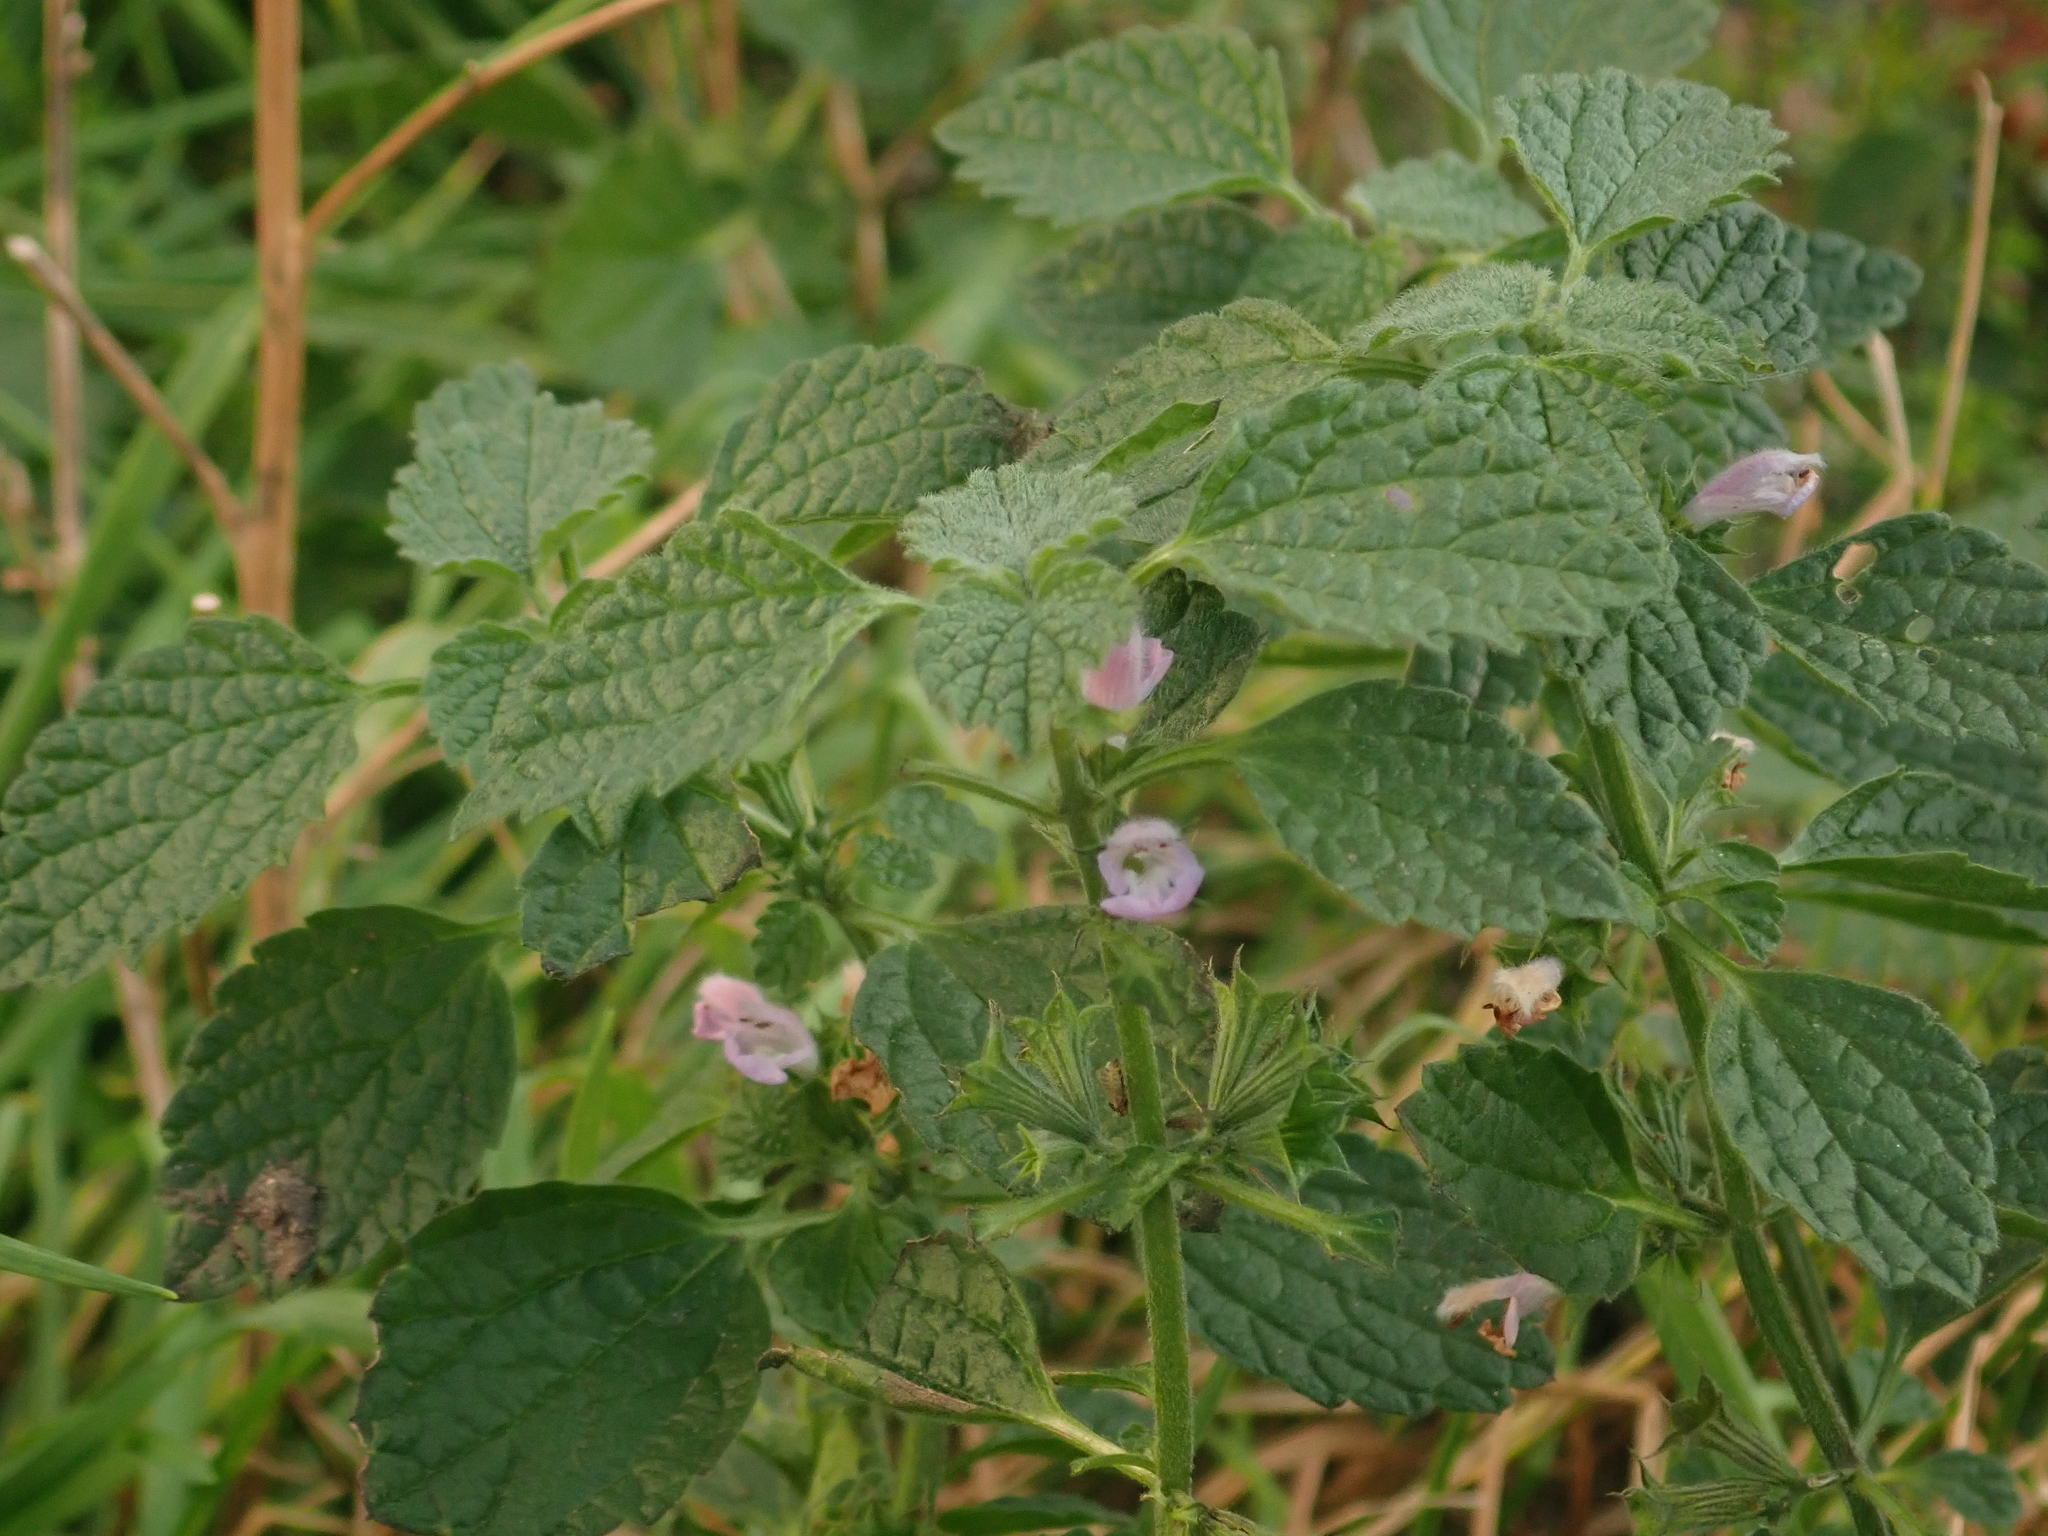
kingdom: Plantae
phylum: Tracheophyta
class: Magnoliopsida
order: Lamiales
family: Lamiaceae
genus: Ballota
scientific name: Ballota nigra
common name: Black horehound
